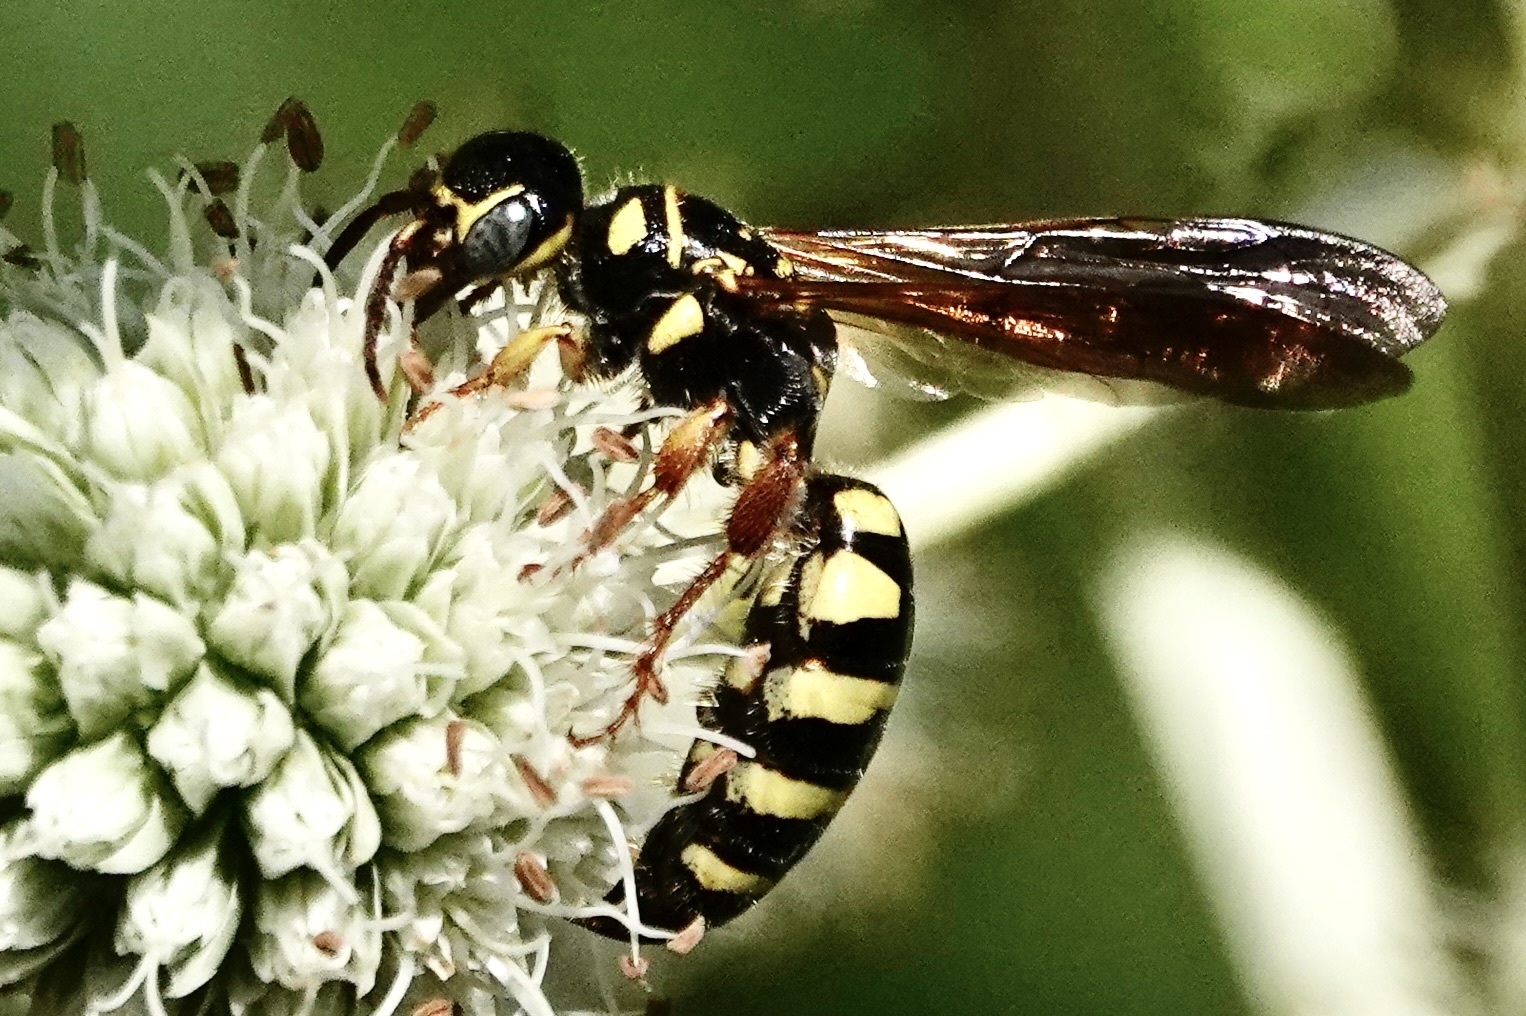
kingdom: Animalia
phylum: Arthropoda
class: Insecta
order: Hymenoptera
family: Tiphiidae
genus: Myzinum
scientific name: Myzinum quinquecinctum
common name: Five-banded thynnid wasp
